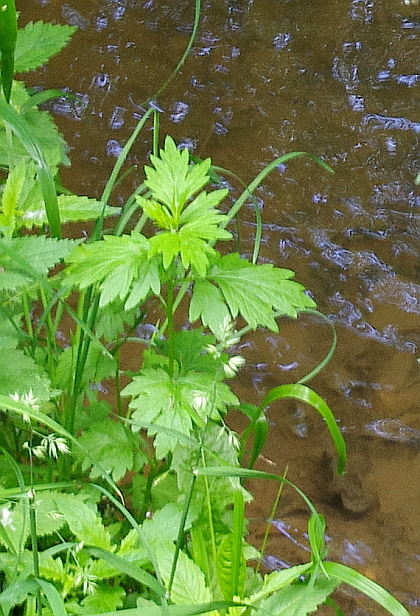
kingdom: Plantae
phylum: Tracheophyta
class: Magnoliopsida
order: Asterales
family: Asteraceae
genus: Artemisia
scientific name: Artemisia vulgaris
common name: Mugwort
